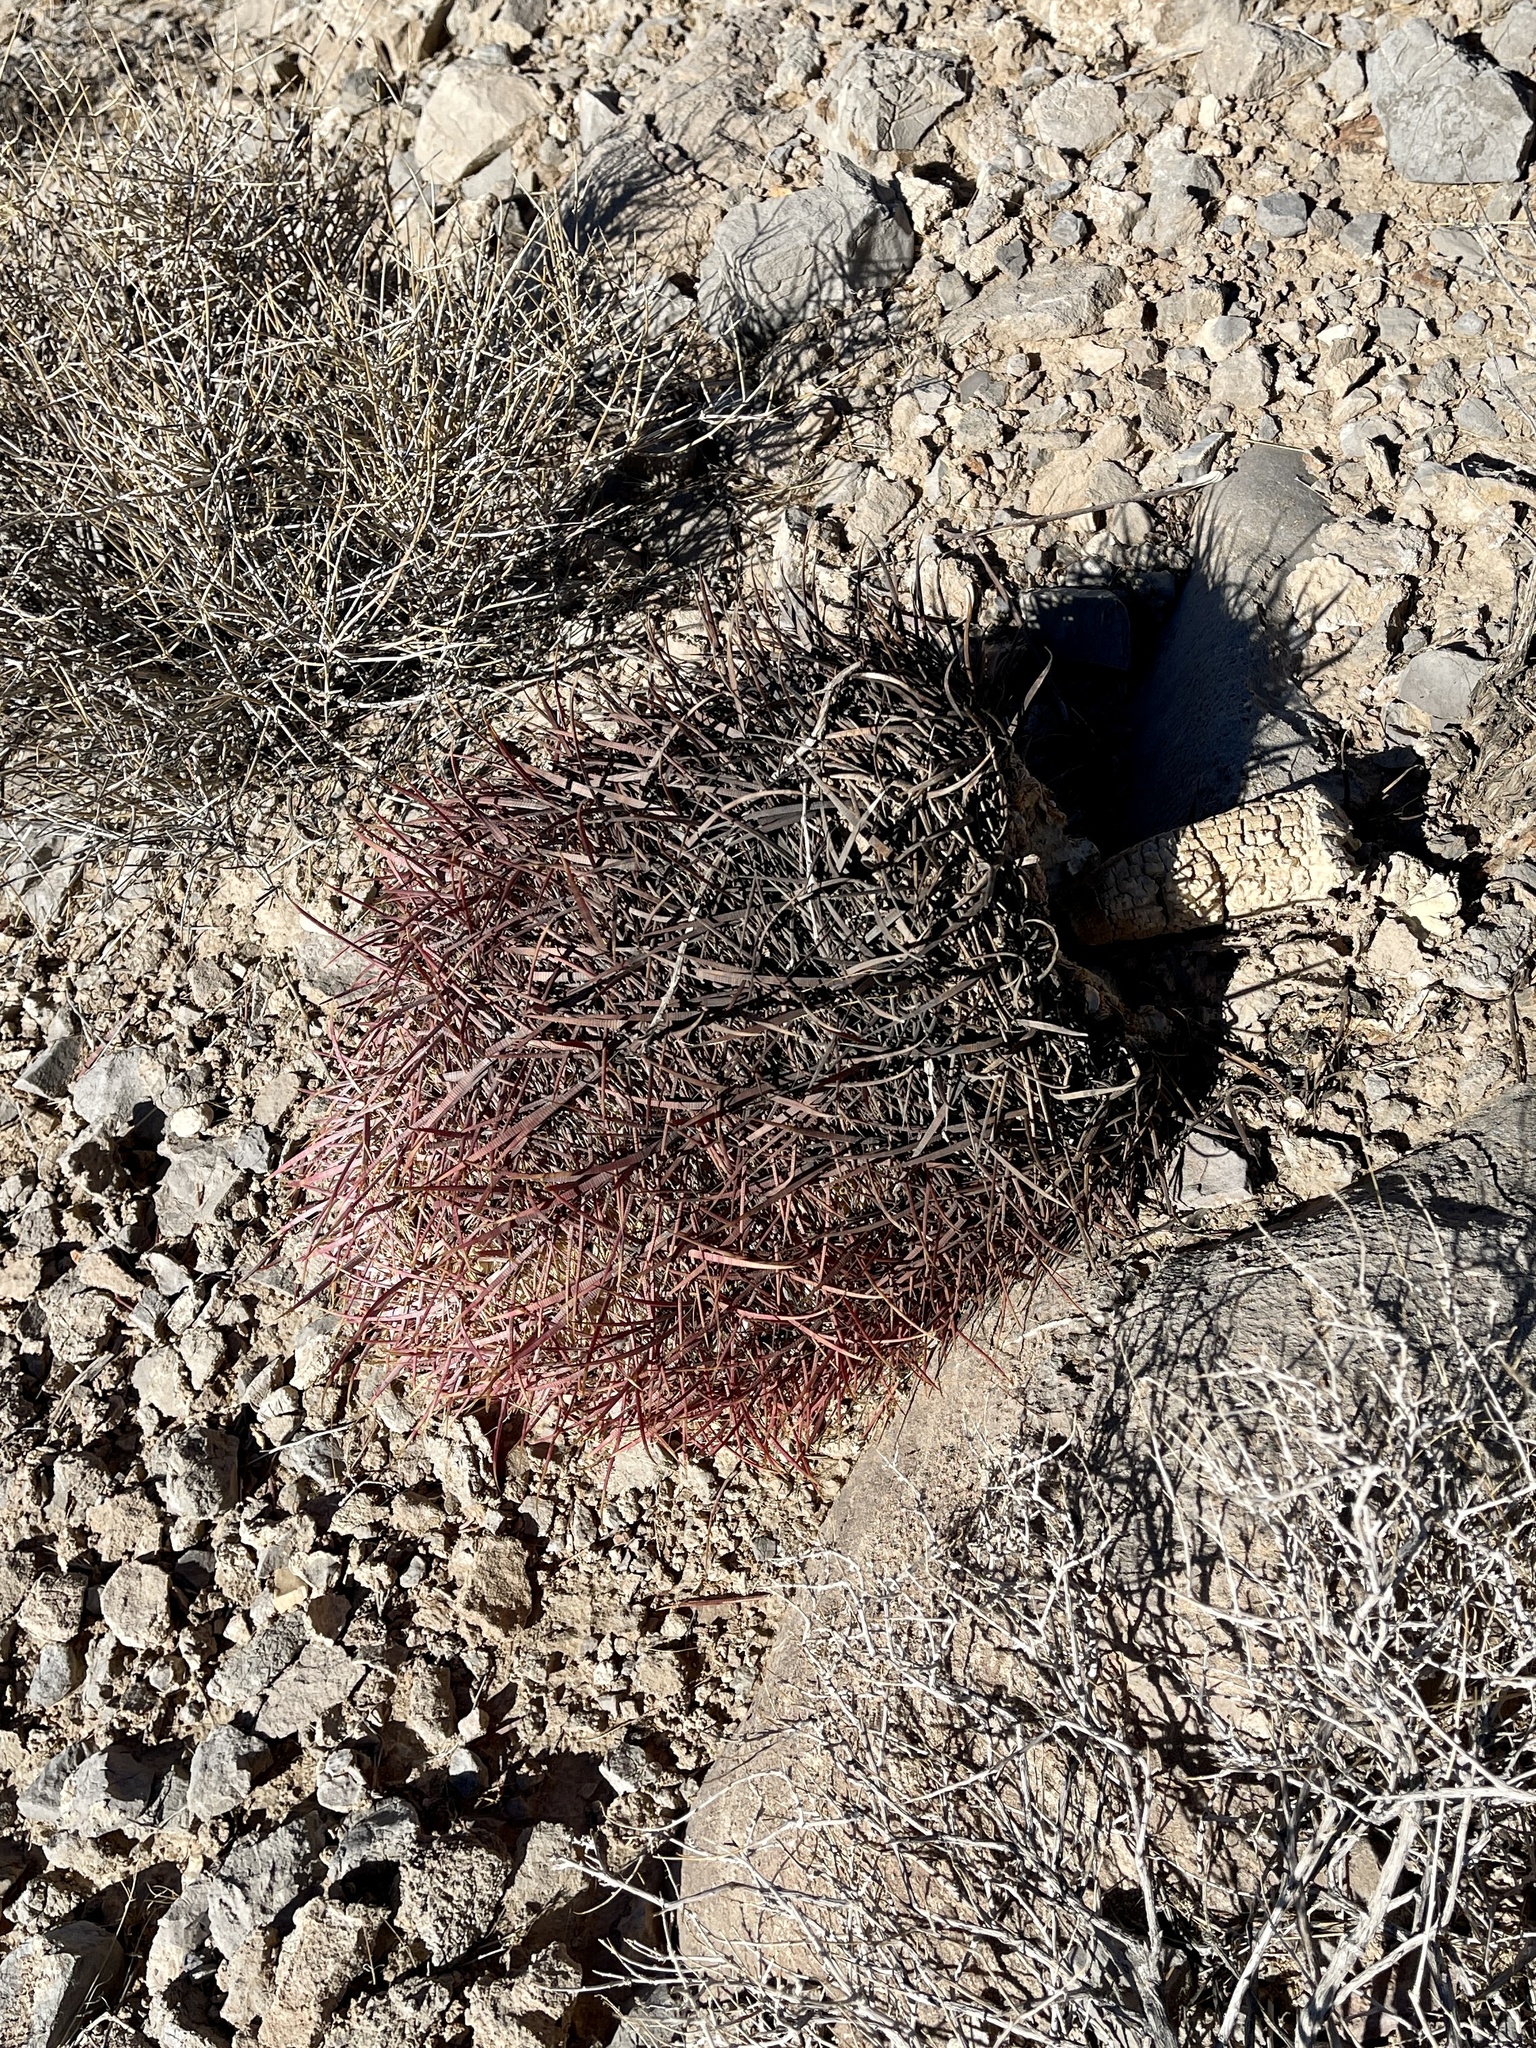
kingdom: Plantae
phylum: Tracheophyta
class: Magnoliopsida
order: Caryophyllales
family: Cactaceae
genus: Ferocactus
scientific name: Ferocactus cylindraceus
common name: California barrel cactus
